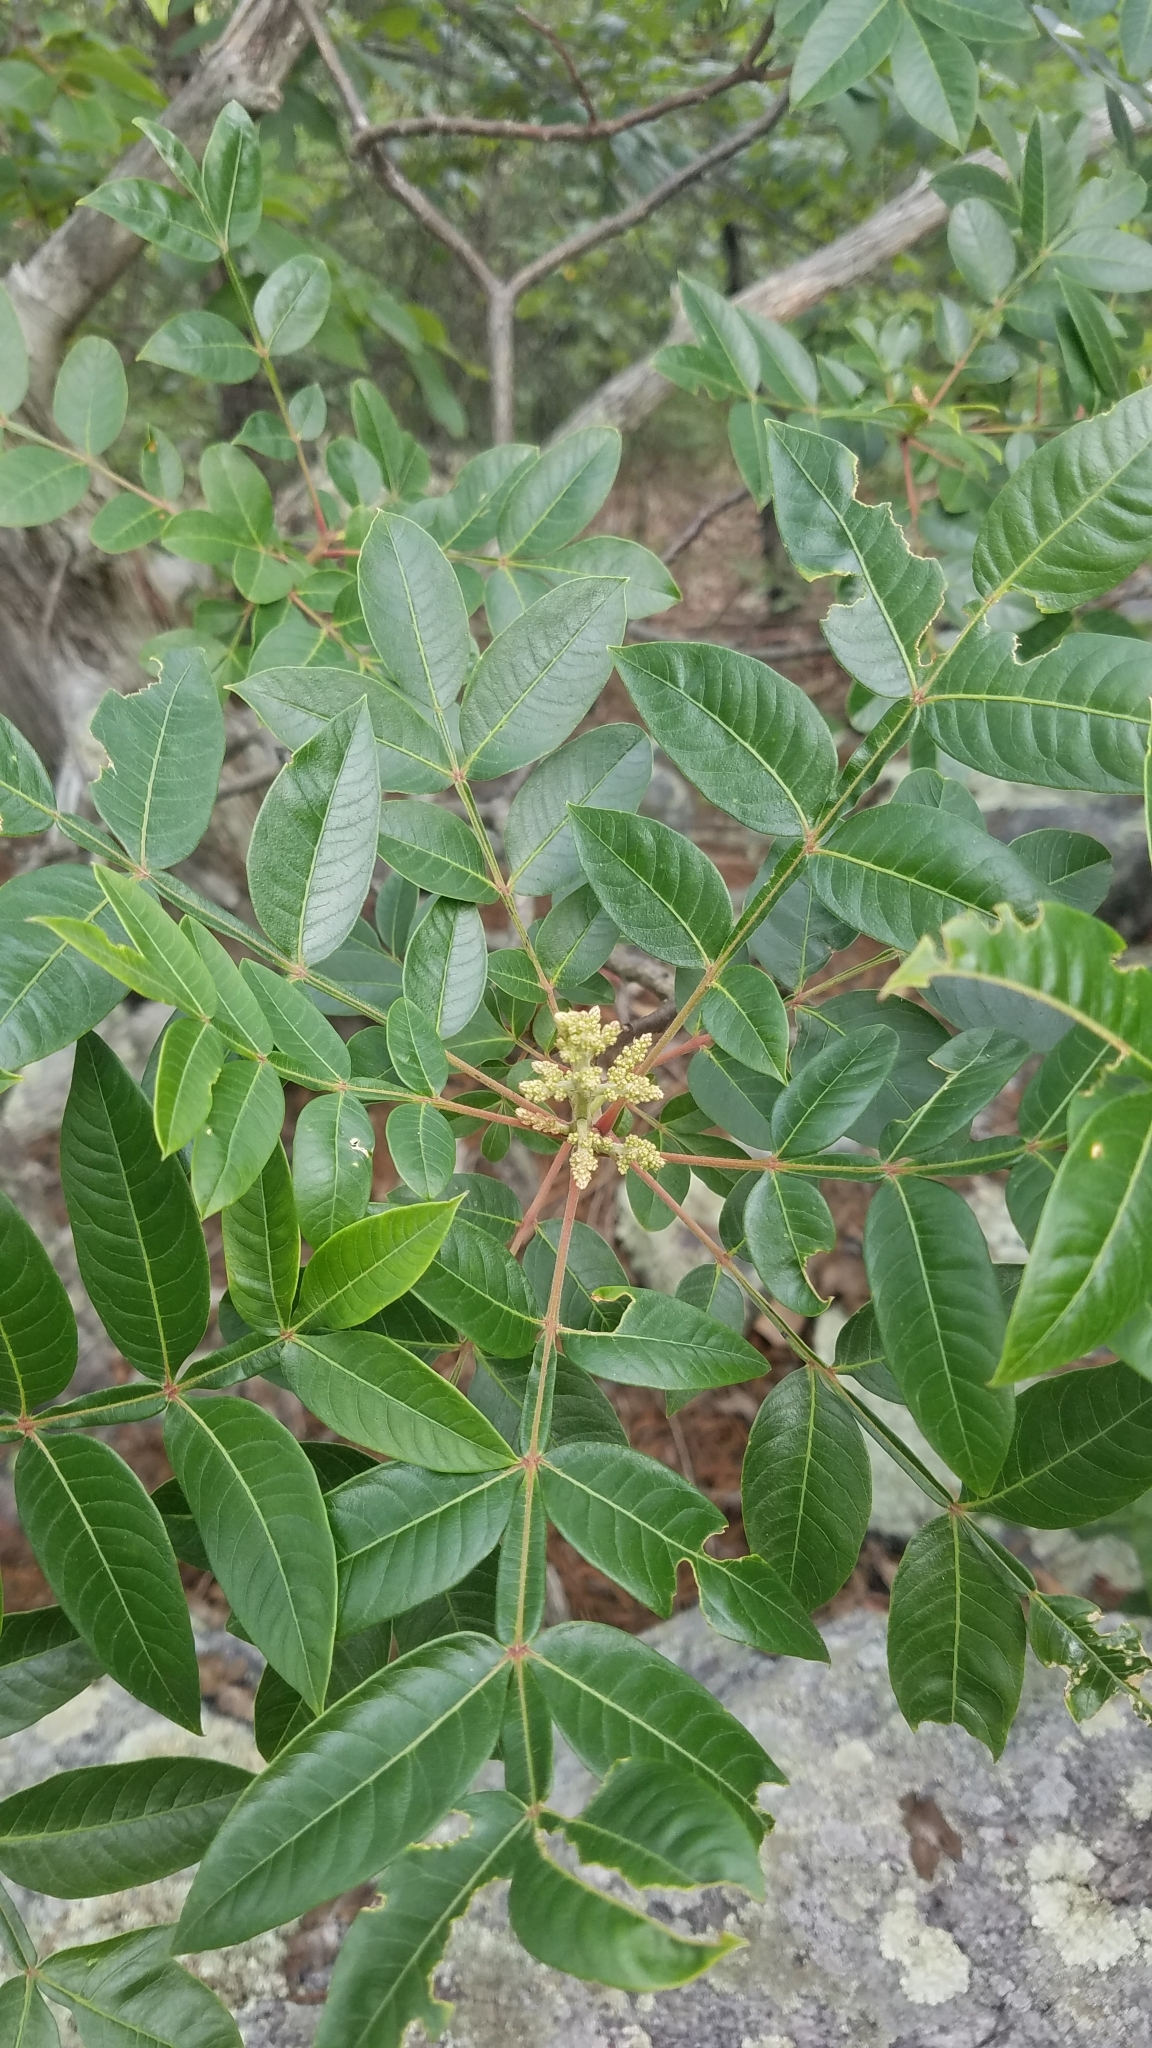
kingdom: Plantae
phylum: Tracheophyta
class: Magnoliopsida
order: Sapindales
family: Anacardiaceae
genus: Rhus
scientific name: Rhus copallina
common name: Shining sumac
